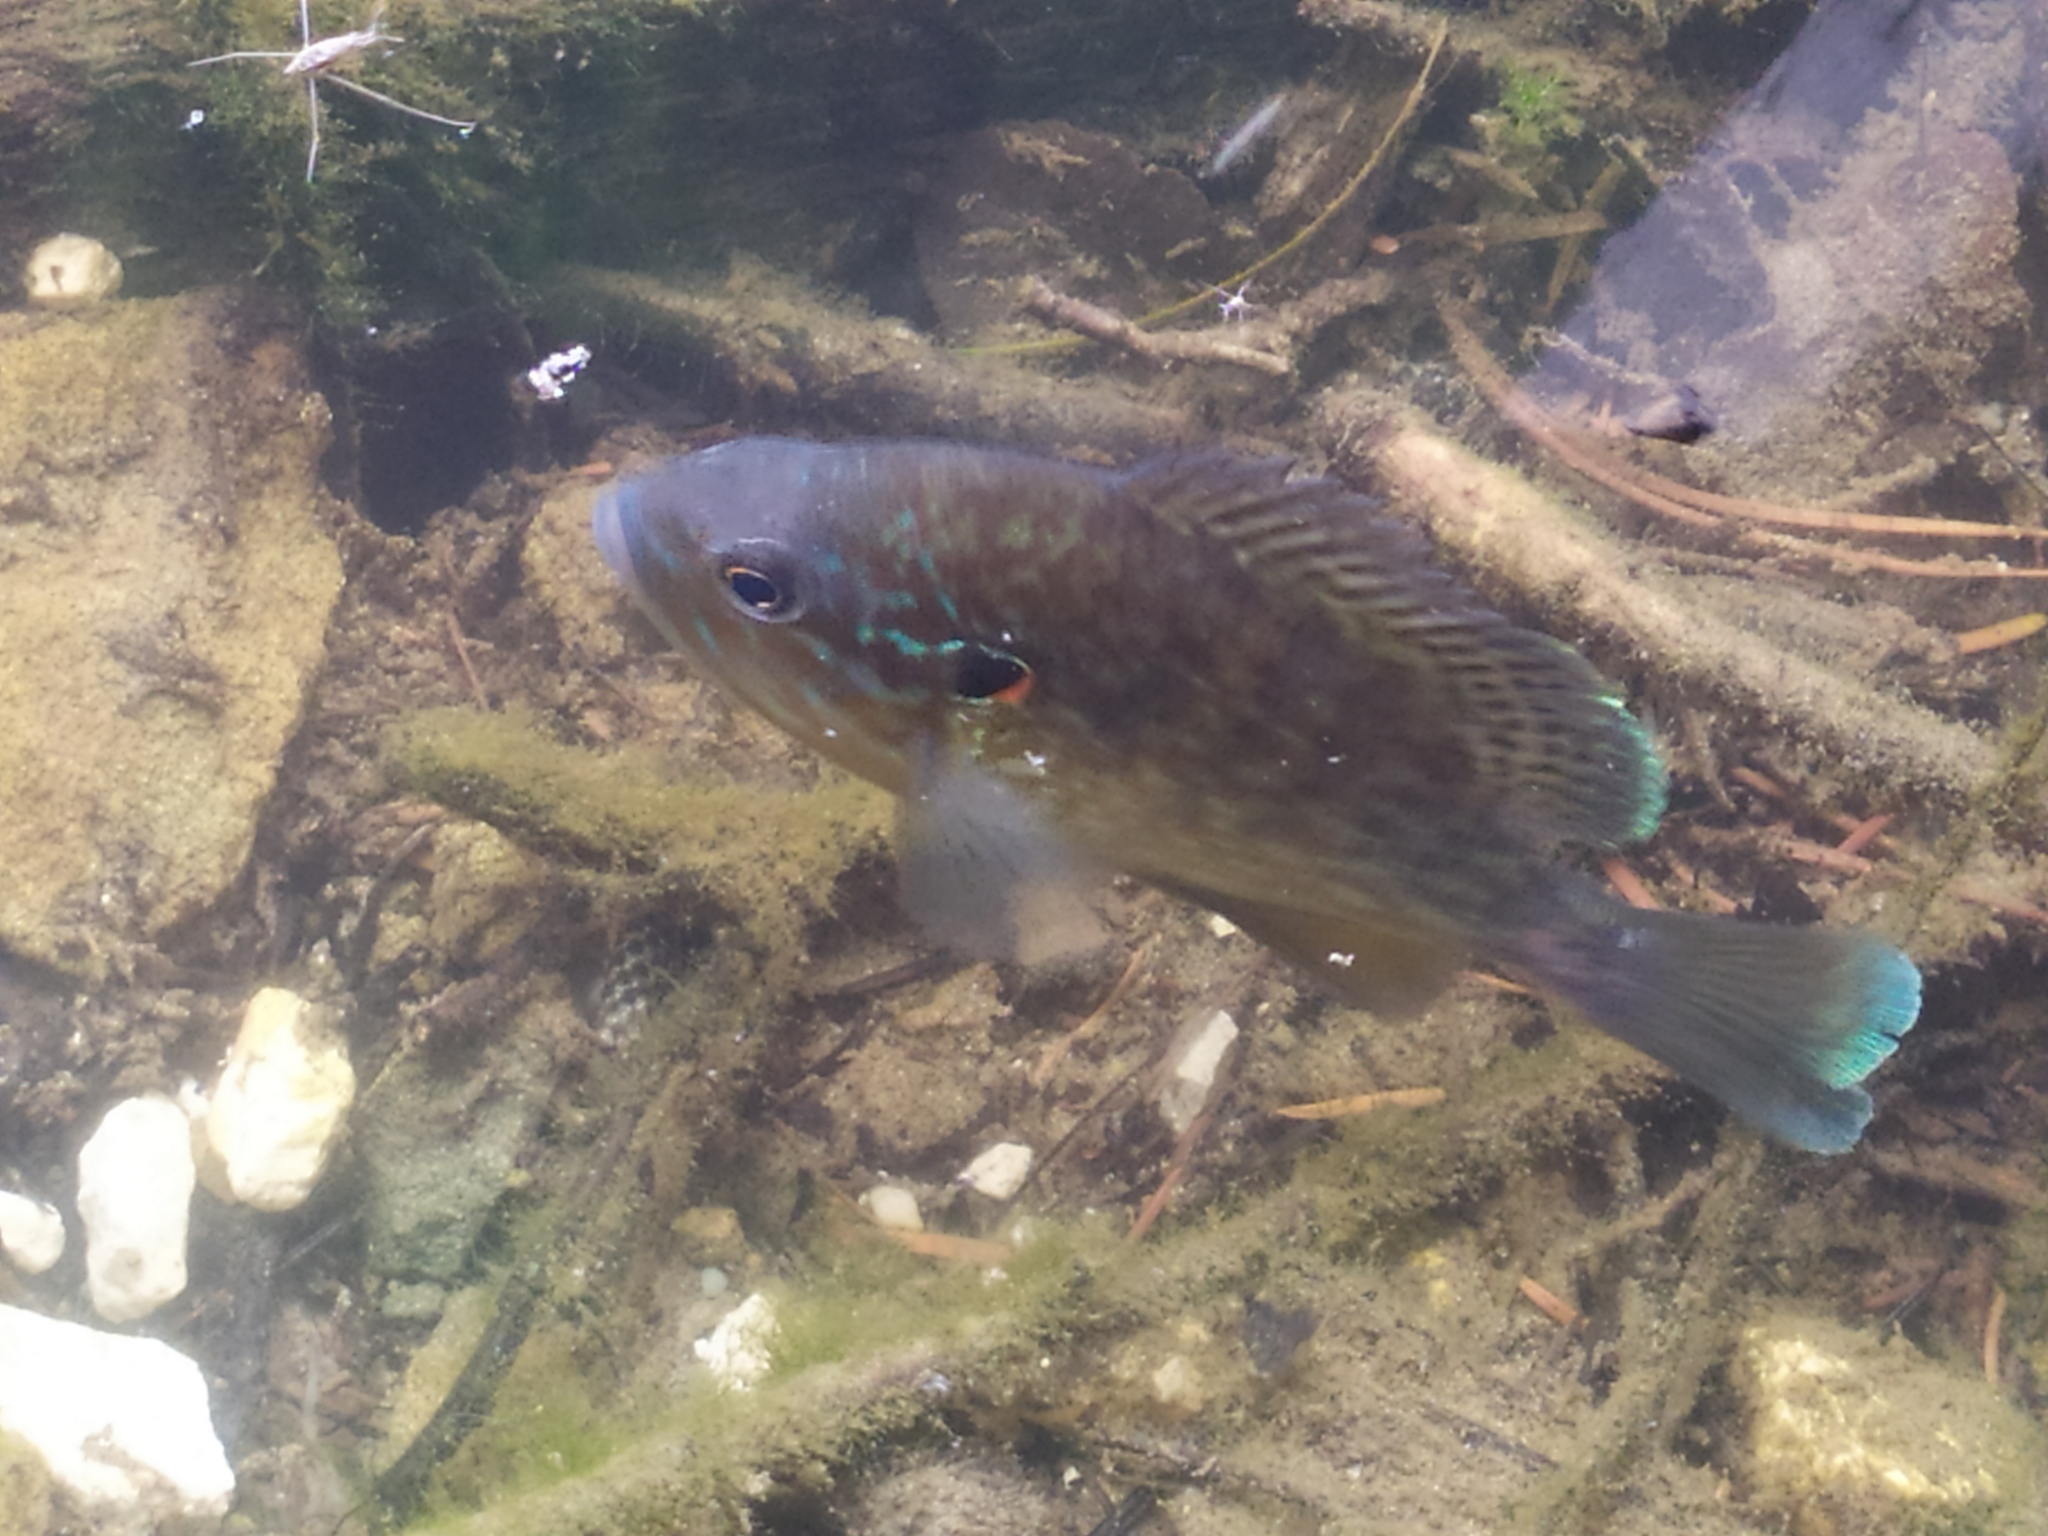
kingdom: Animalia
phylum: Chordata
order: Perciformes
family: Centrarchidae
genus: Lepomis
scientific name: Lepomis gibbosus
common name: Pumpkinseed
